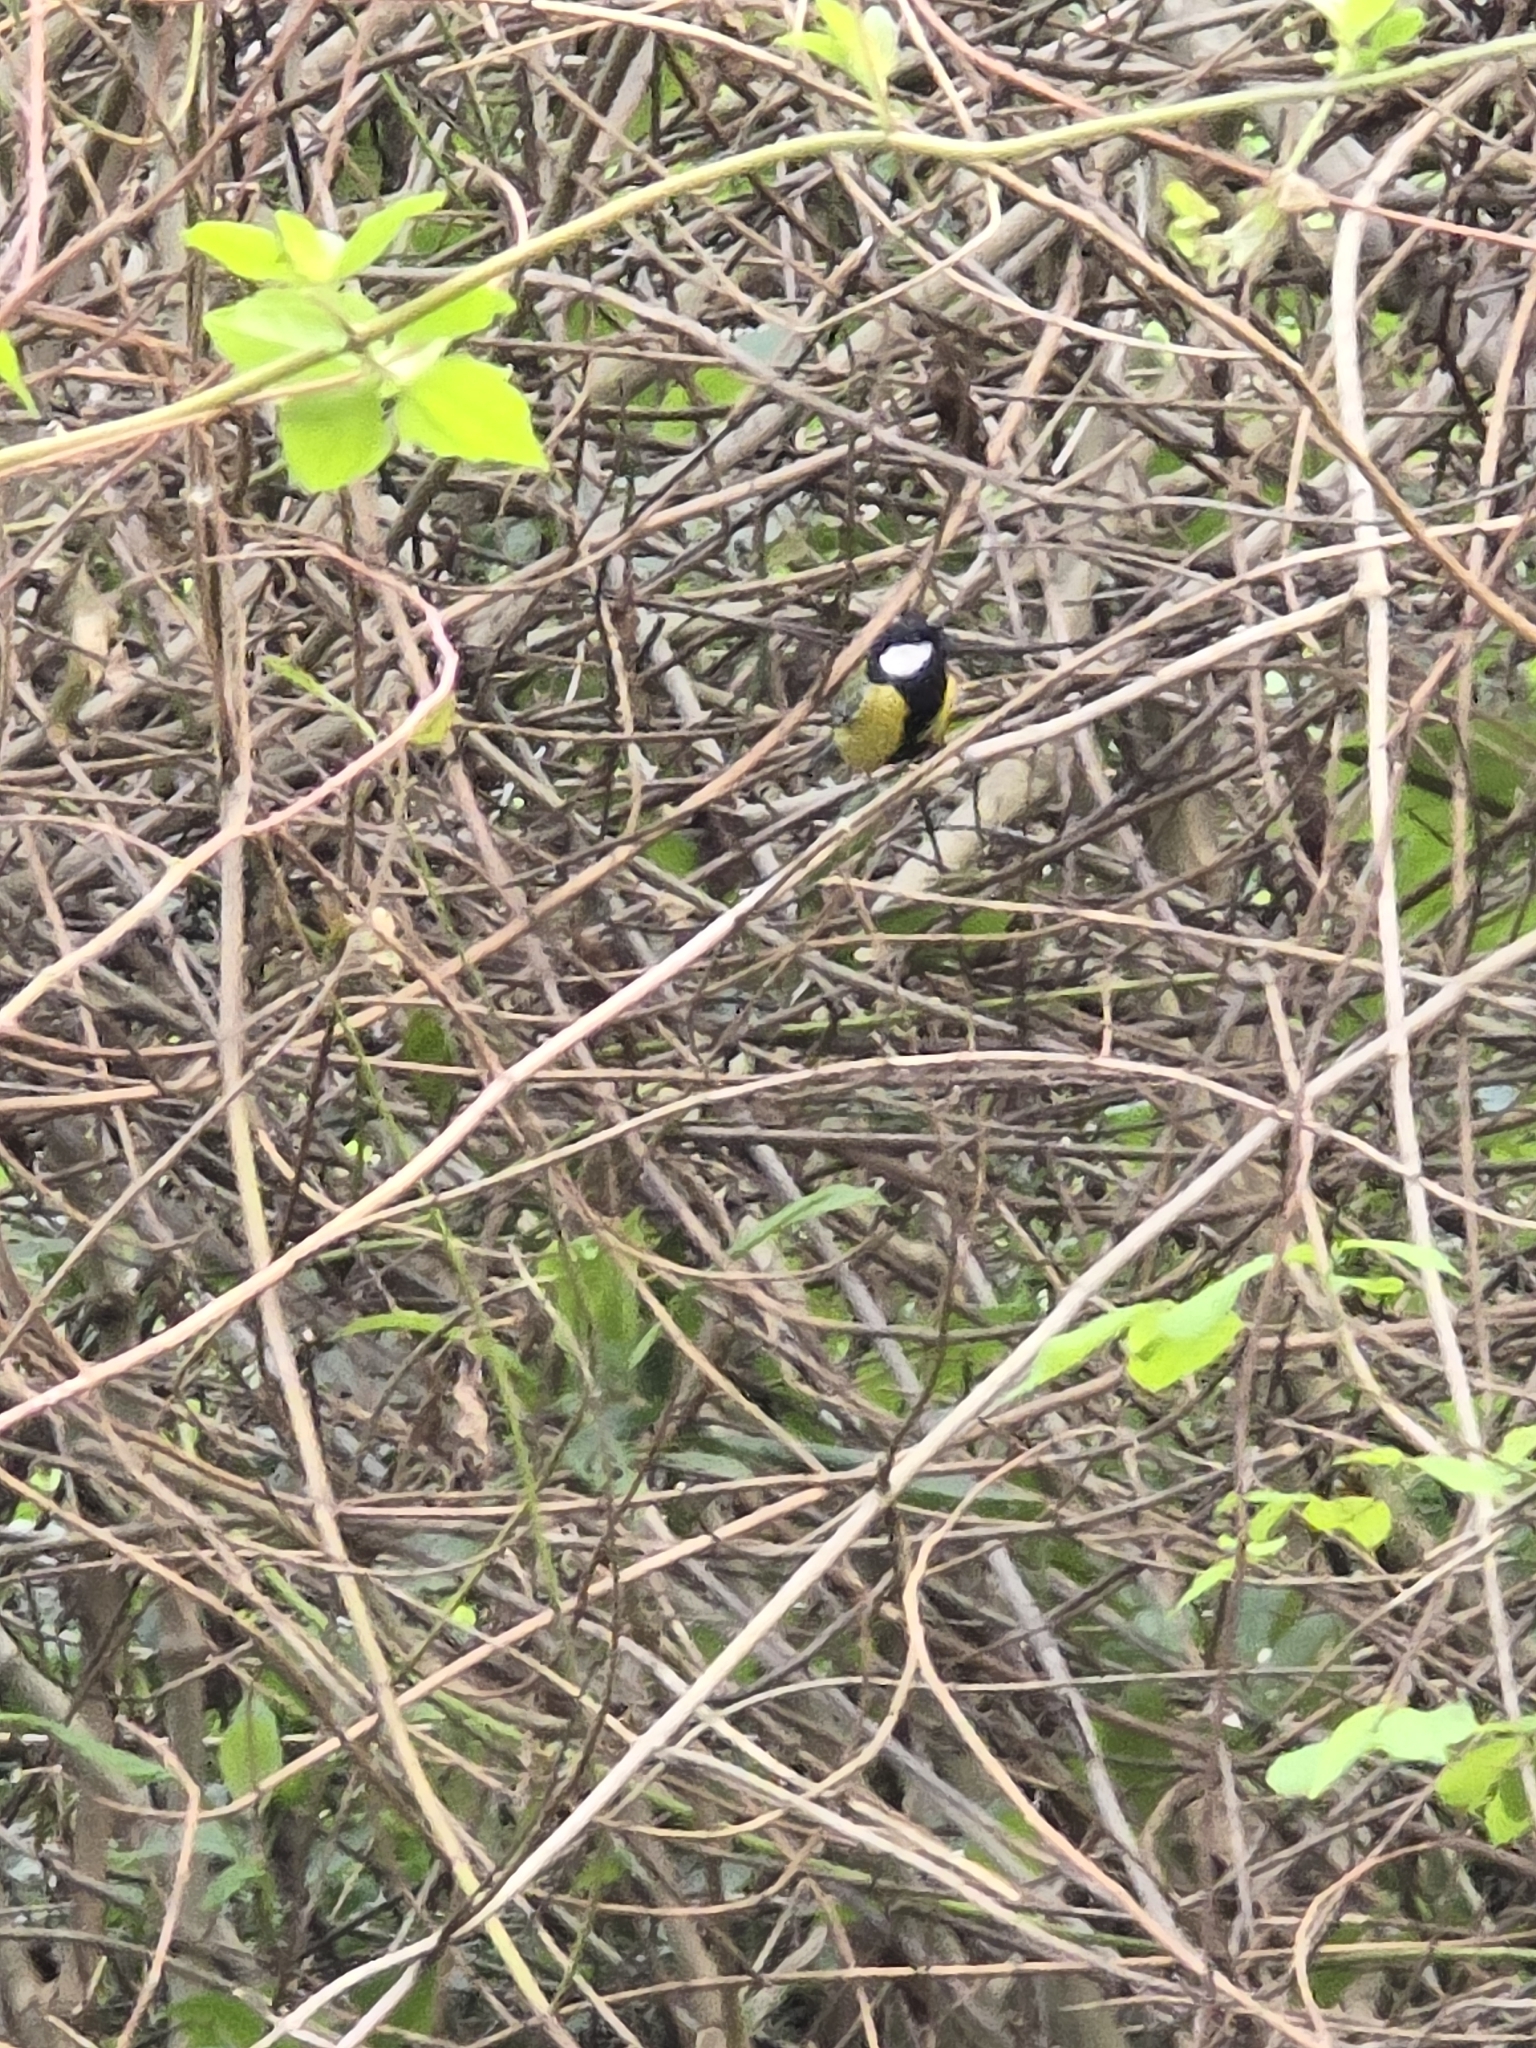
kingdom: Animalia
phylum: Chordata
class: Aves
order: Passeriformes
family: Paridae
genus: Parus
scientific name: Parus monticolus
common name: Green-backed tit
